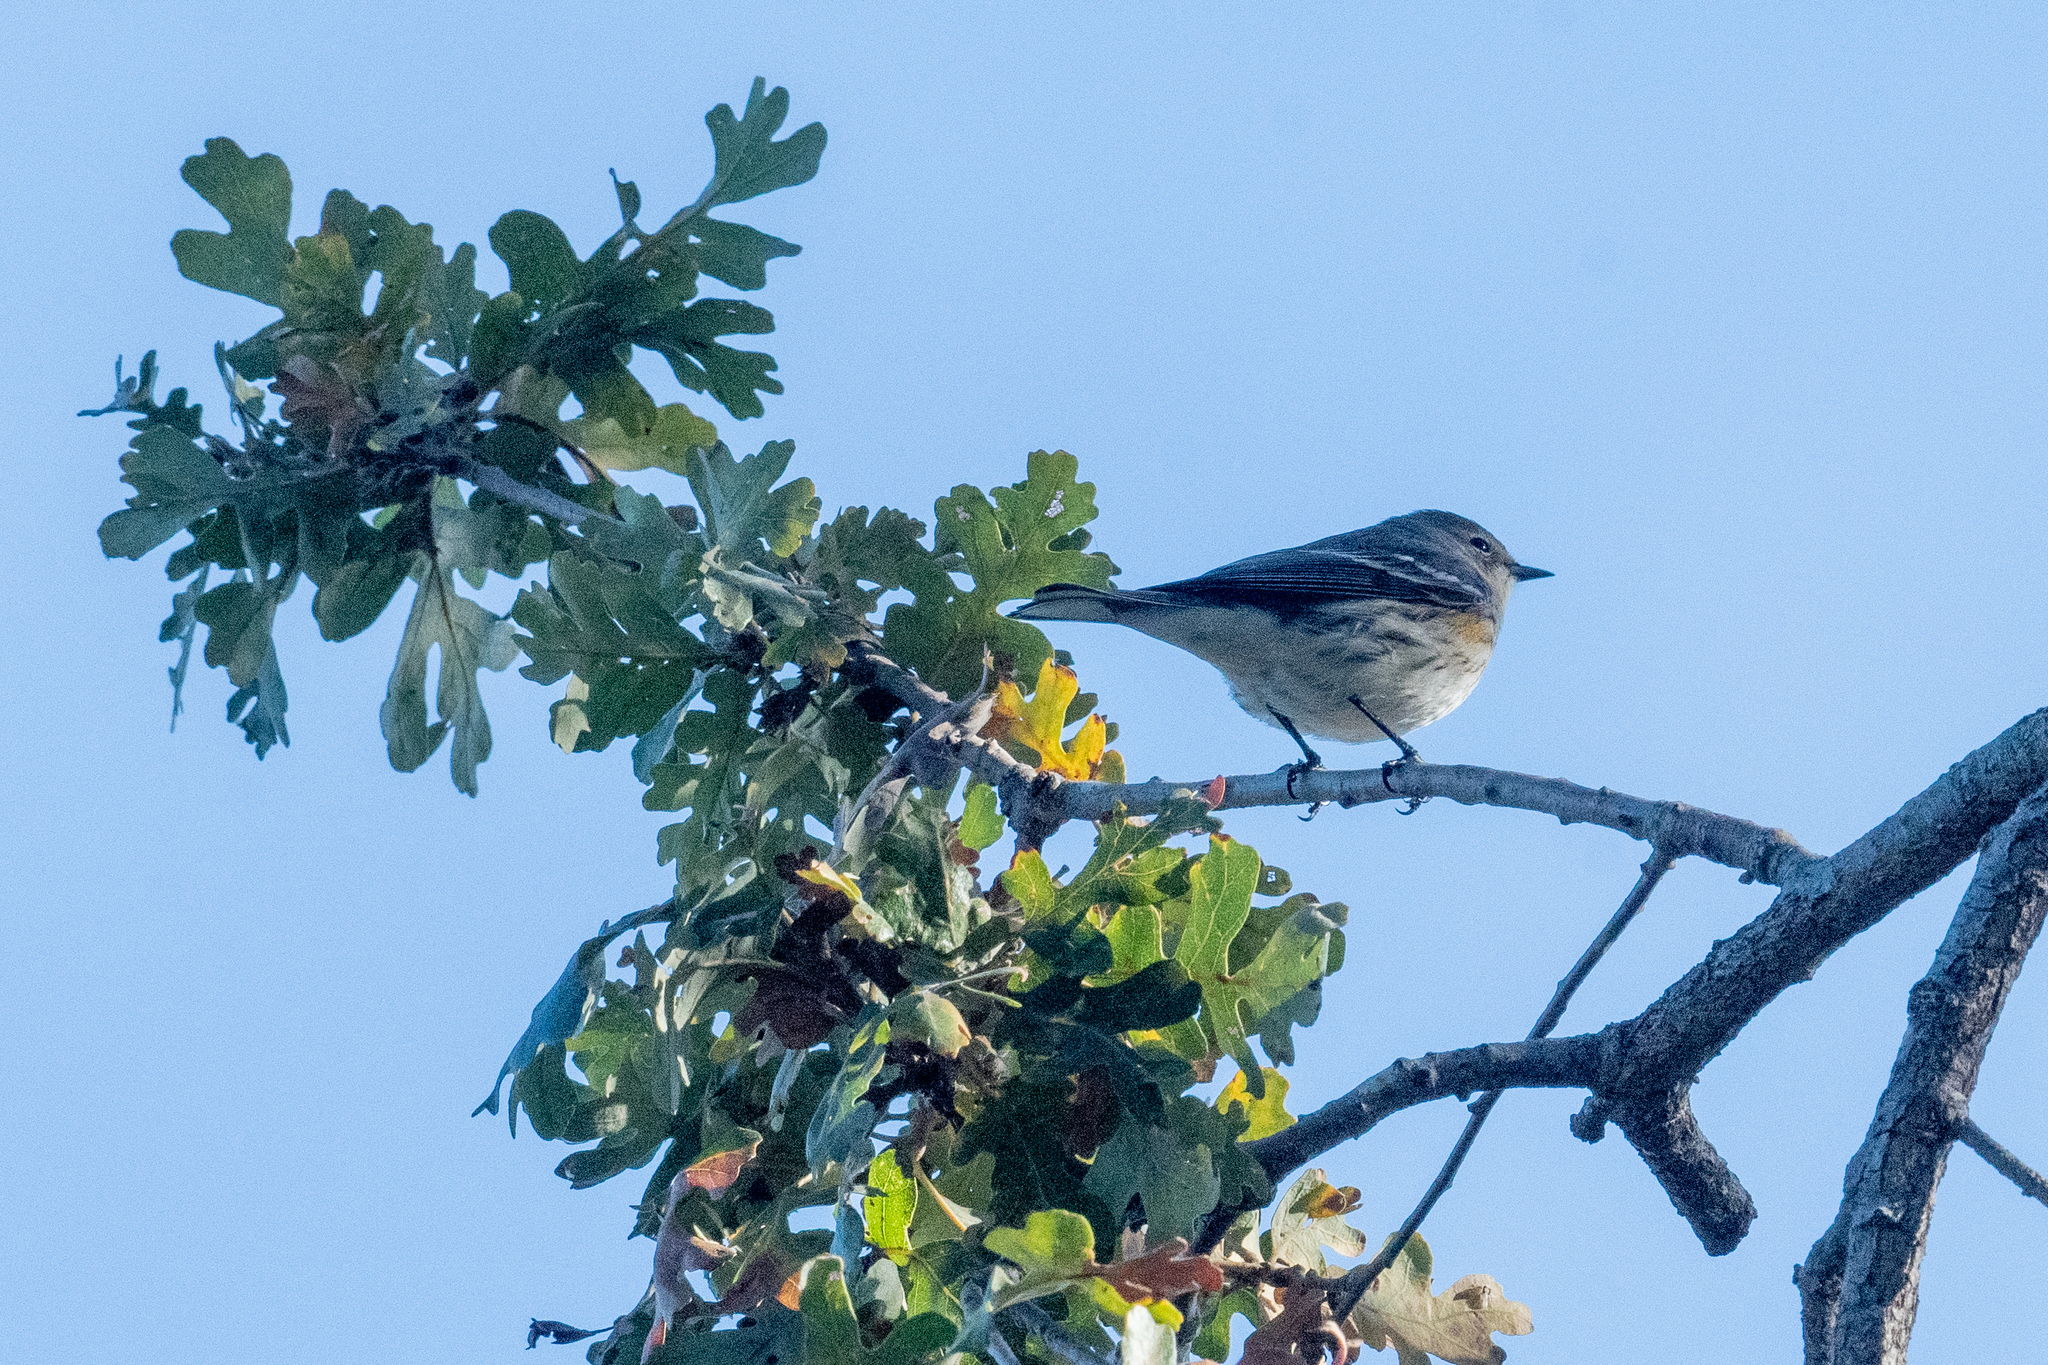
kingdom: Animalia
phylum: Chordata
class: Aves
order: Passeriformes
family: Parulidae
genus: Setophaga
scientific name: Setophaga coronata
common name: Myrtle warbler
